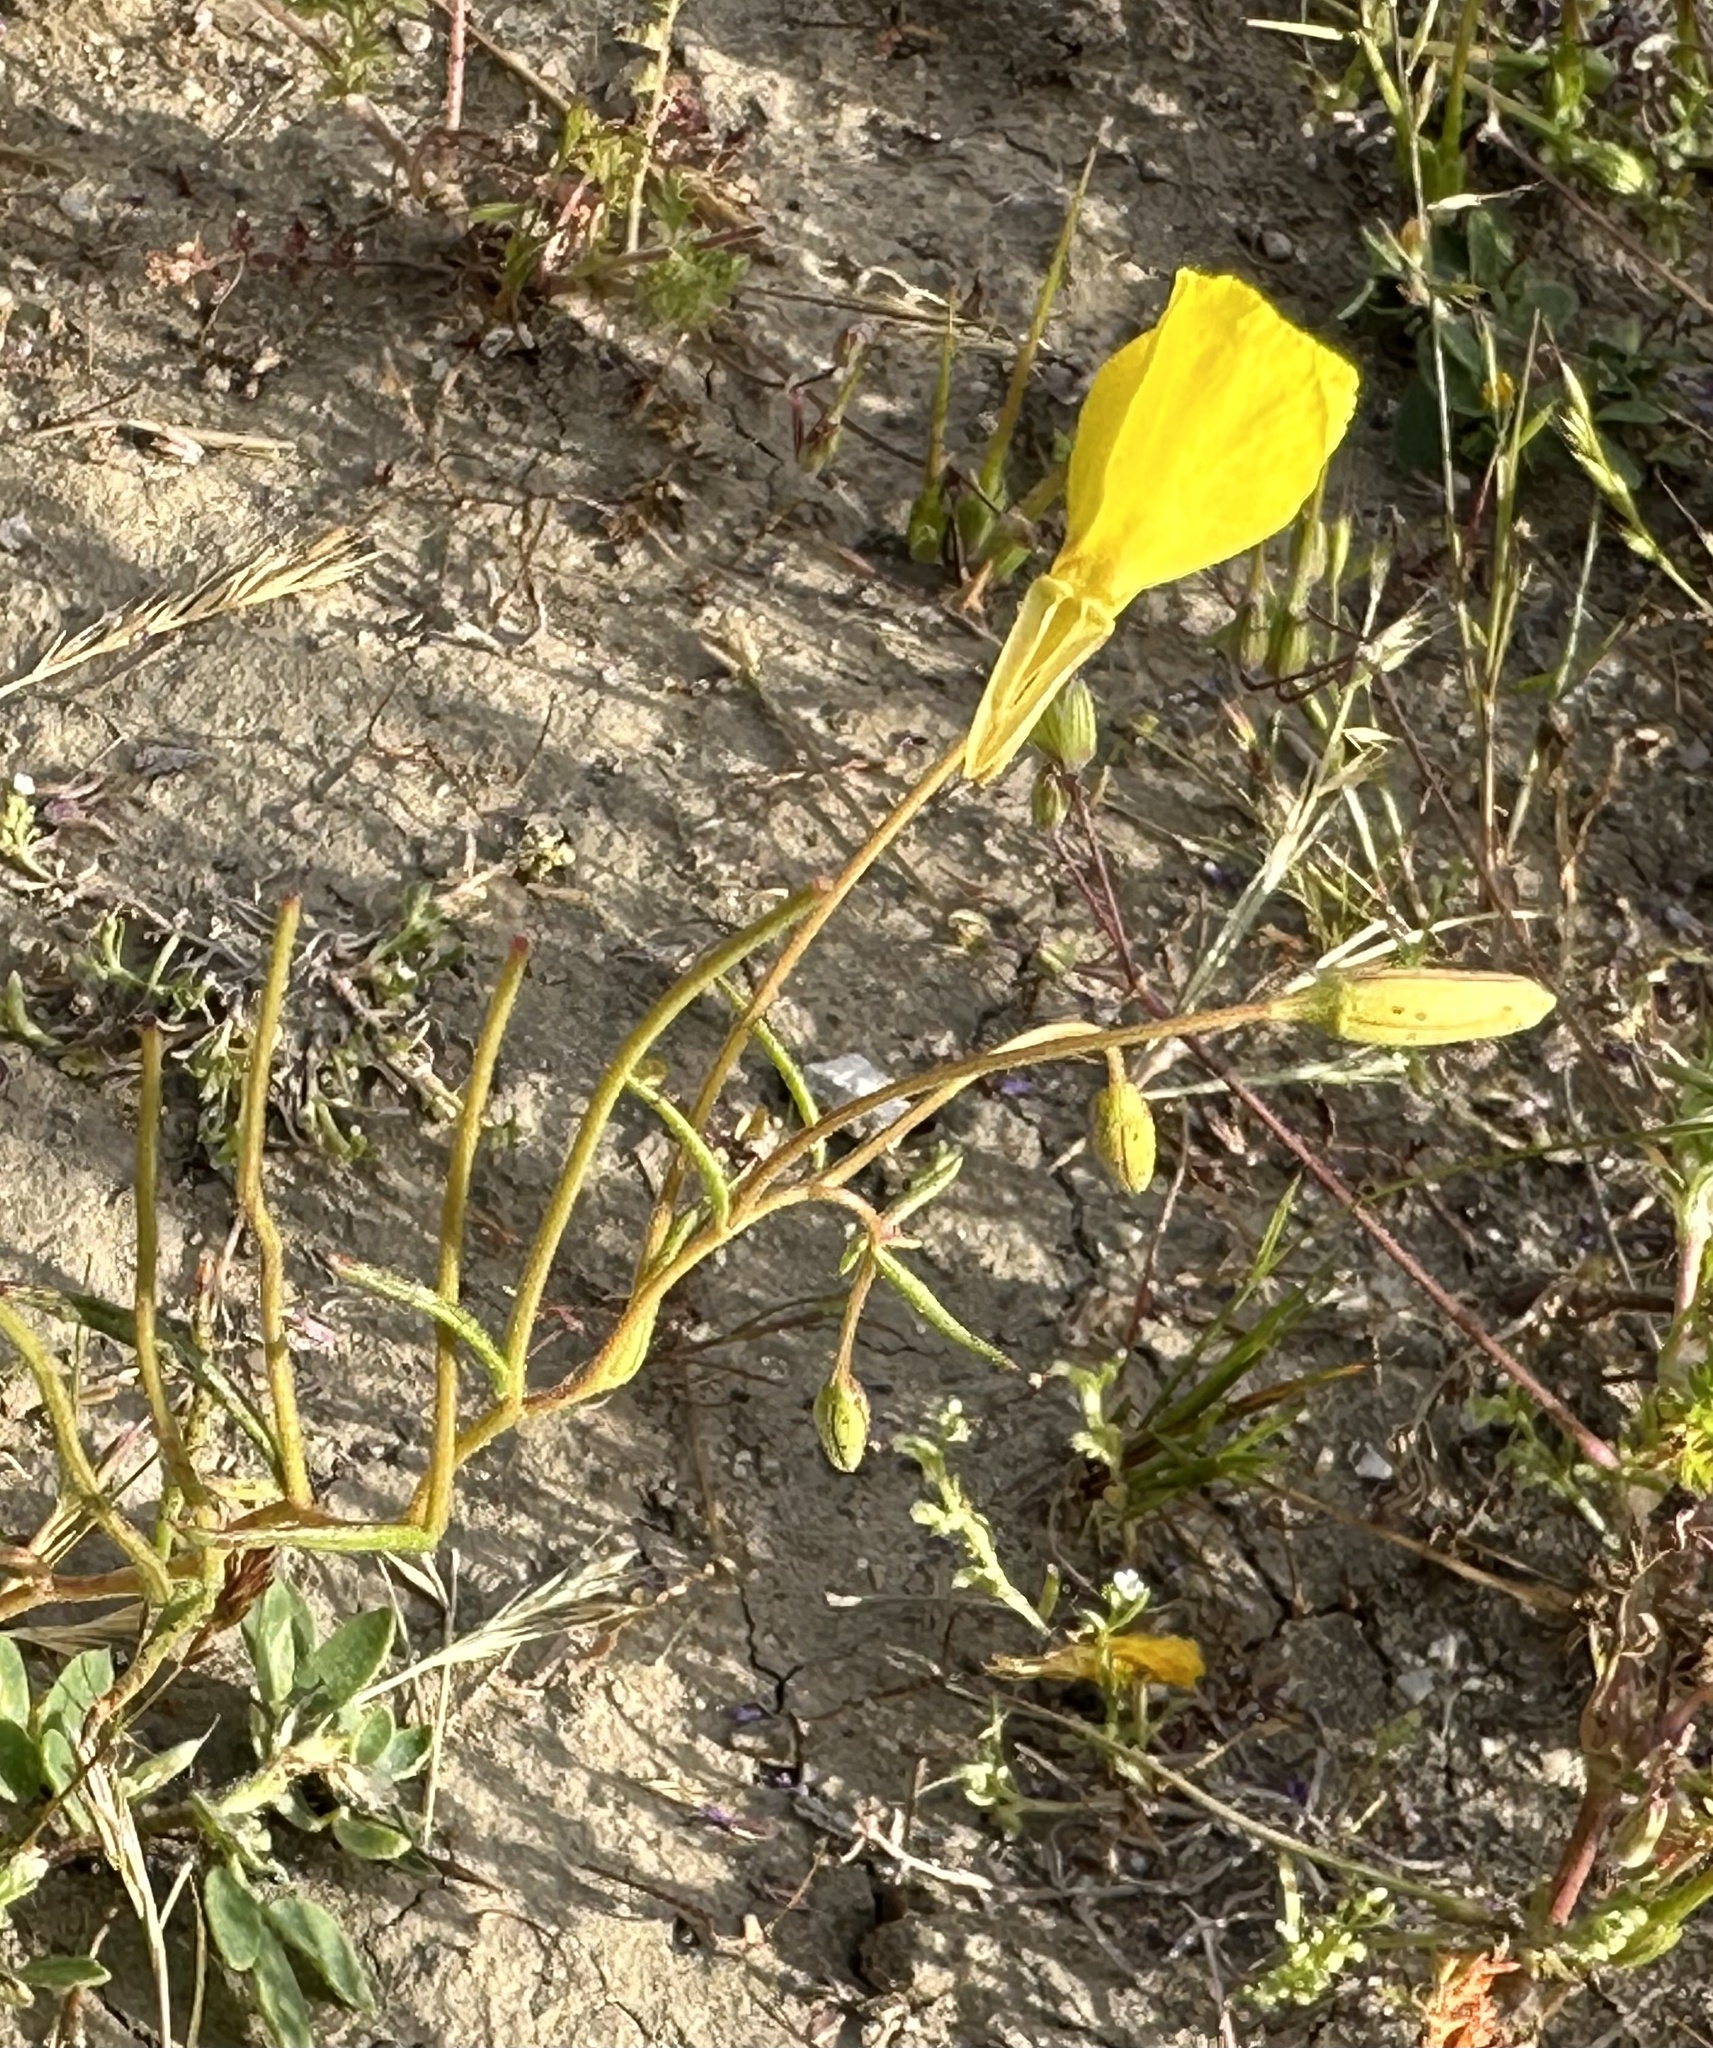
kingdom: Plantae
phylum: Tracheophyta
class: Magnoliopsida
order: Myrtales
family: Onagraceae
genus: Camissonia
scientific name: Camissonia campestris
